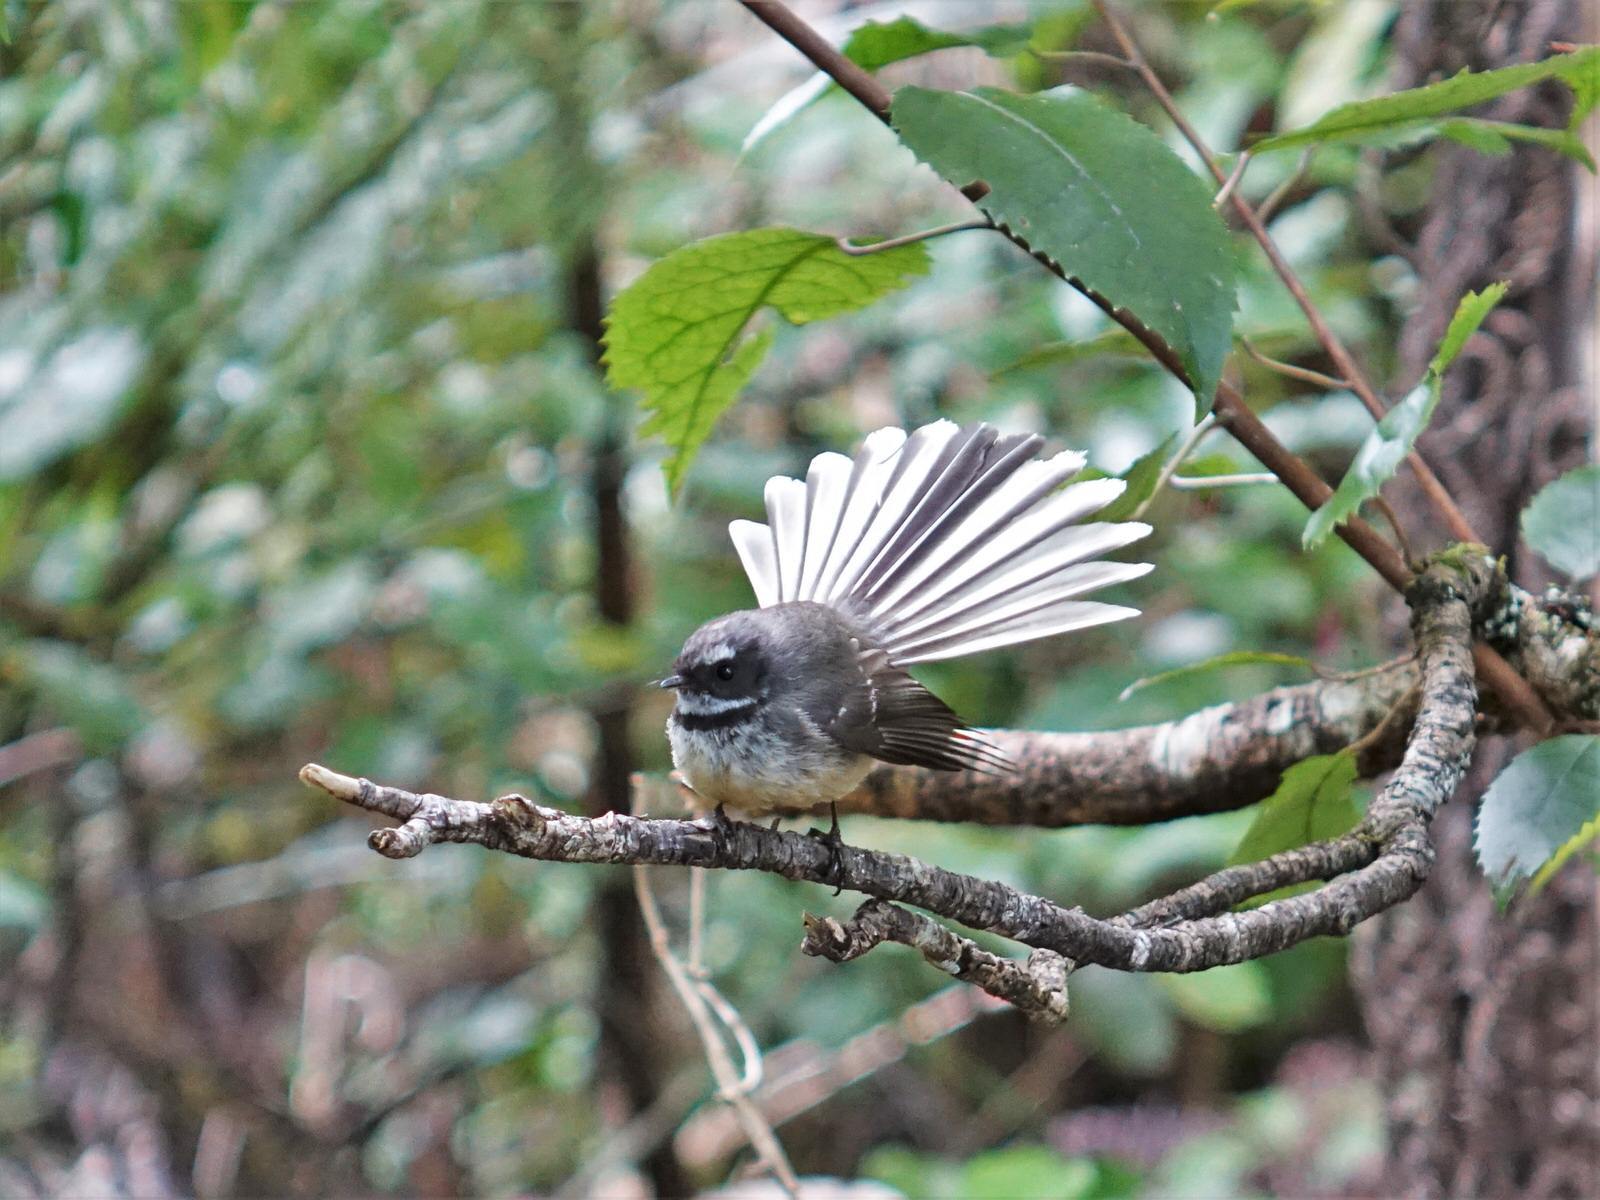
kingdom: Animalia
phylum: Chordata
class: Aves
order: Passeriformes
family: Rhipiduridae
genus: Rhipidura
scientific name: Rhipidura fuliginosa
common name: New zealand fantail
